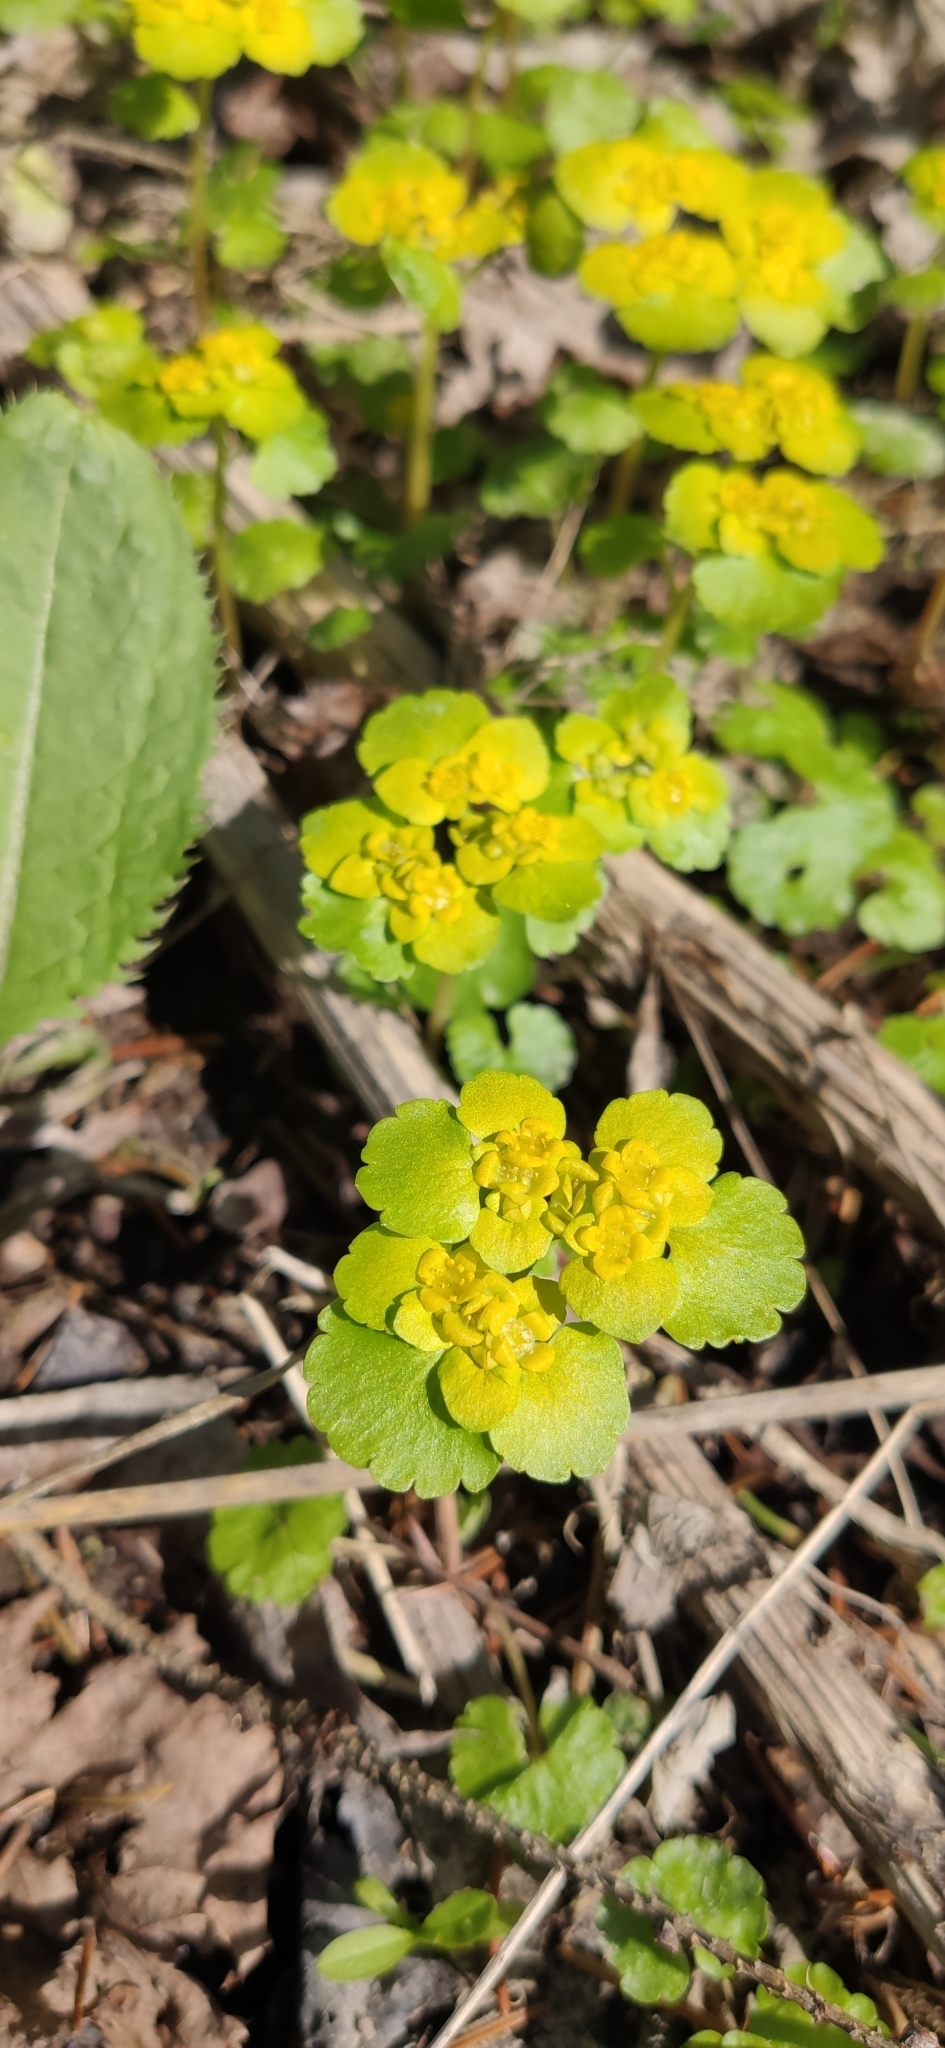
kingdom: Plantae
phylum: Tracheophyta
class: Magnoliopsida
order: Saxifragales
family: Saxifragaceae
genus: Chrysosplenium
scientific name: Chrysosplenium alternifolium
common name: Alternate-leaved golden-saxifrage
